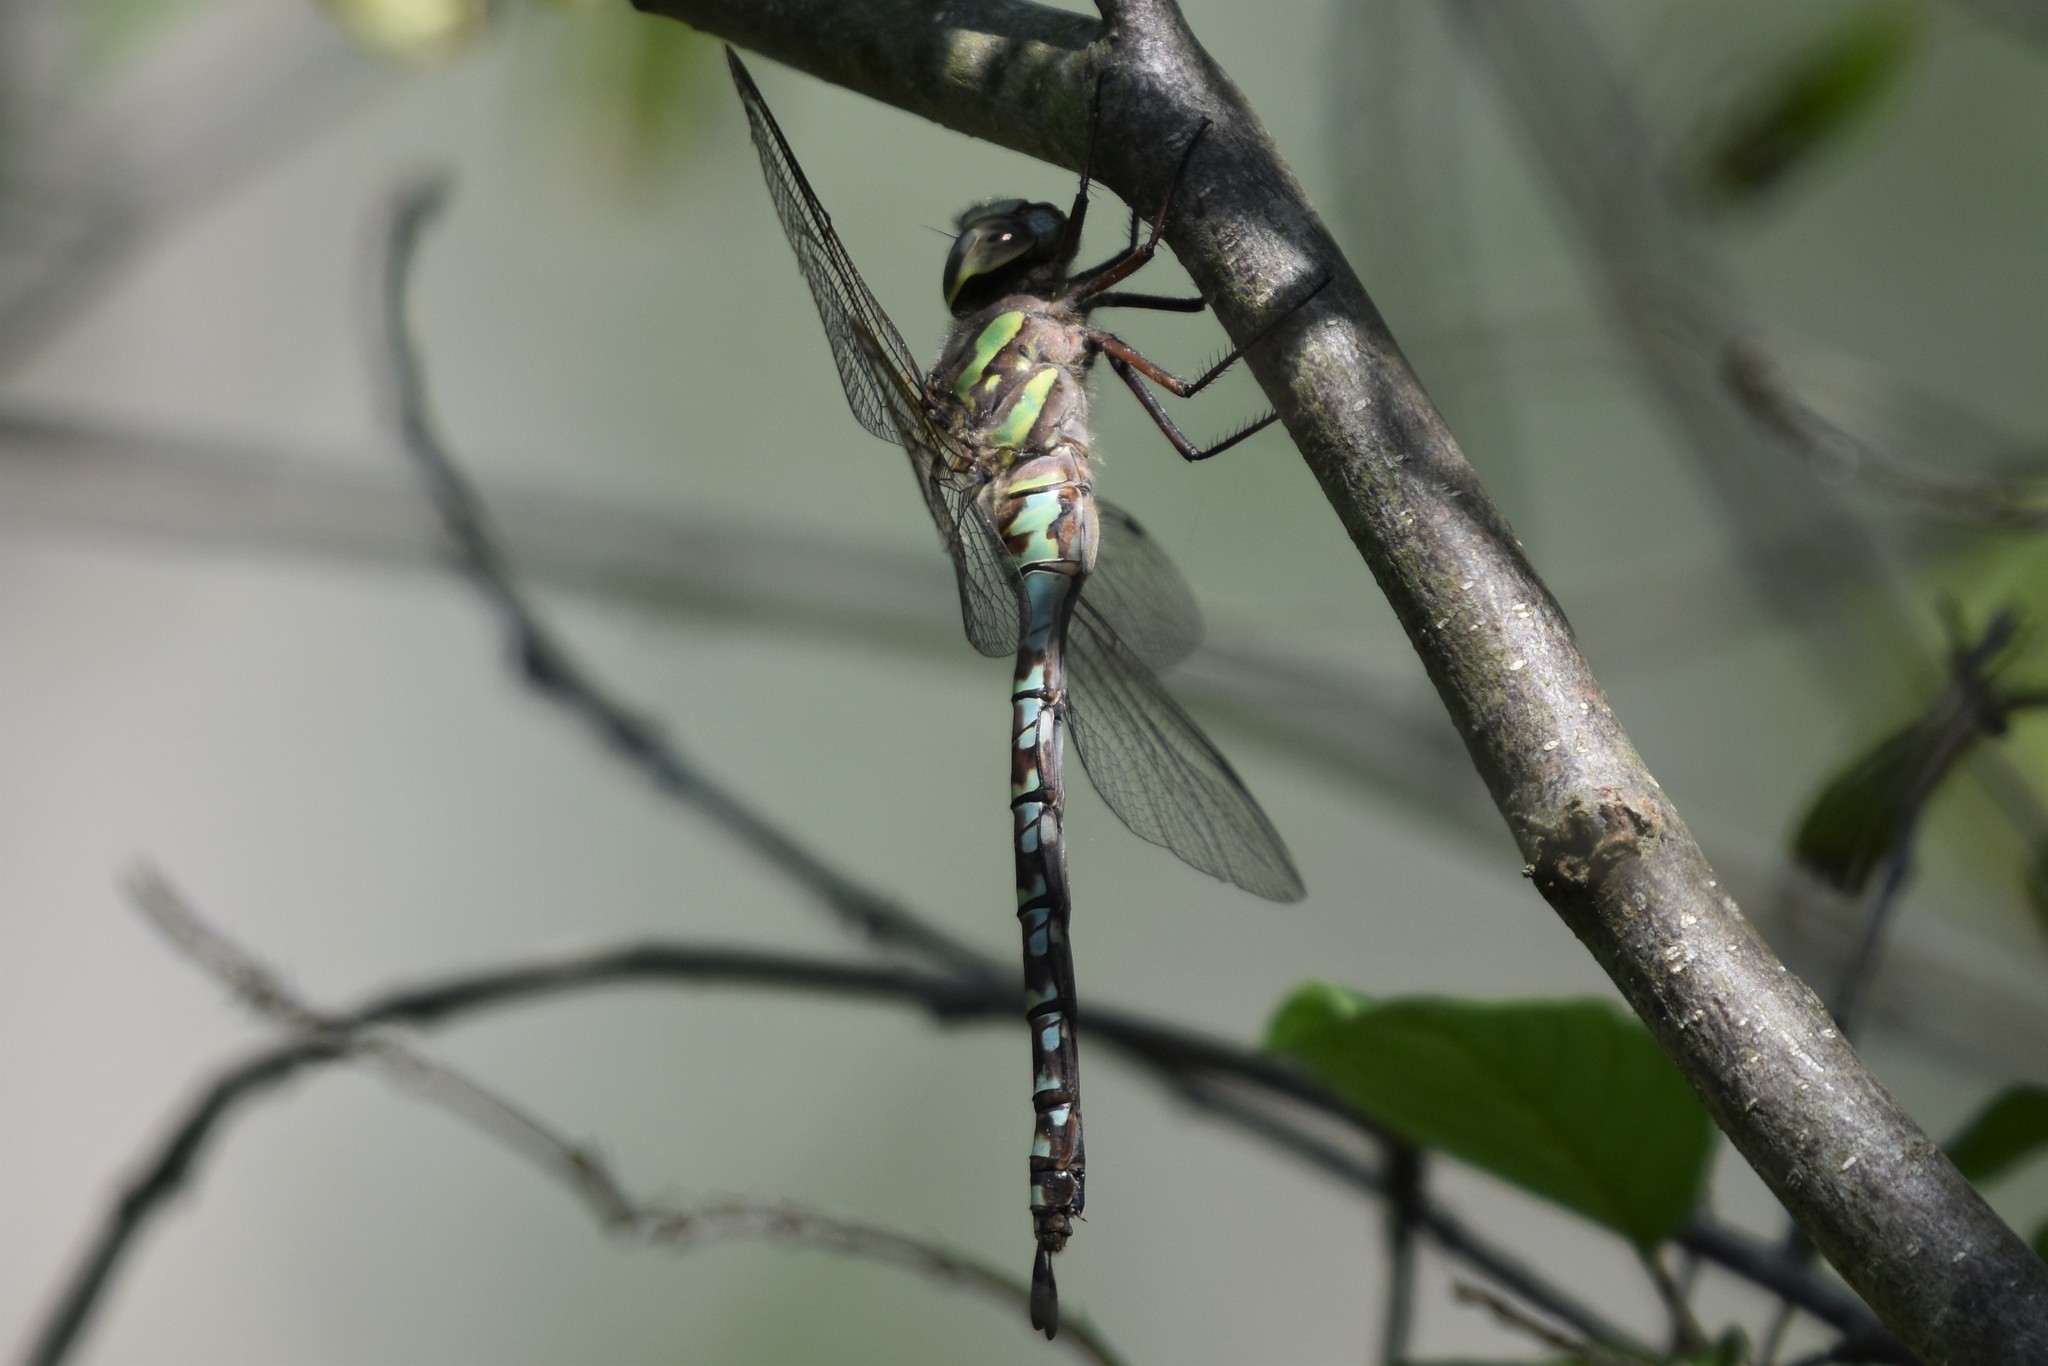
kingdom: Animalia
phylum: Arthropoda
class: Insecta
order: Odonata
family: Aeshnidae
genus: Aeshna
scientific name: Aeshna canadensis
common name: Canada darner
